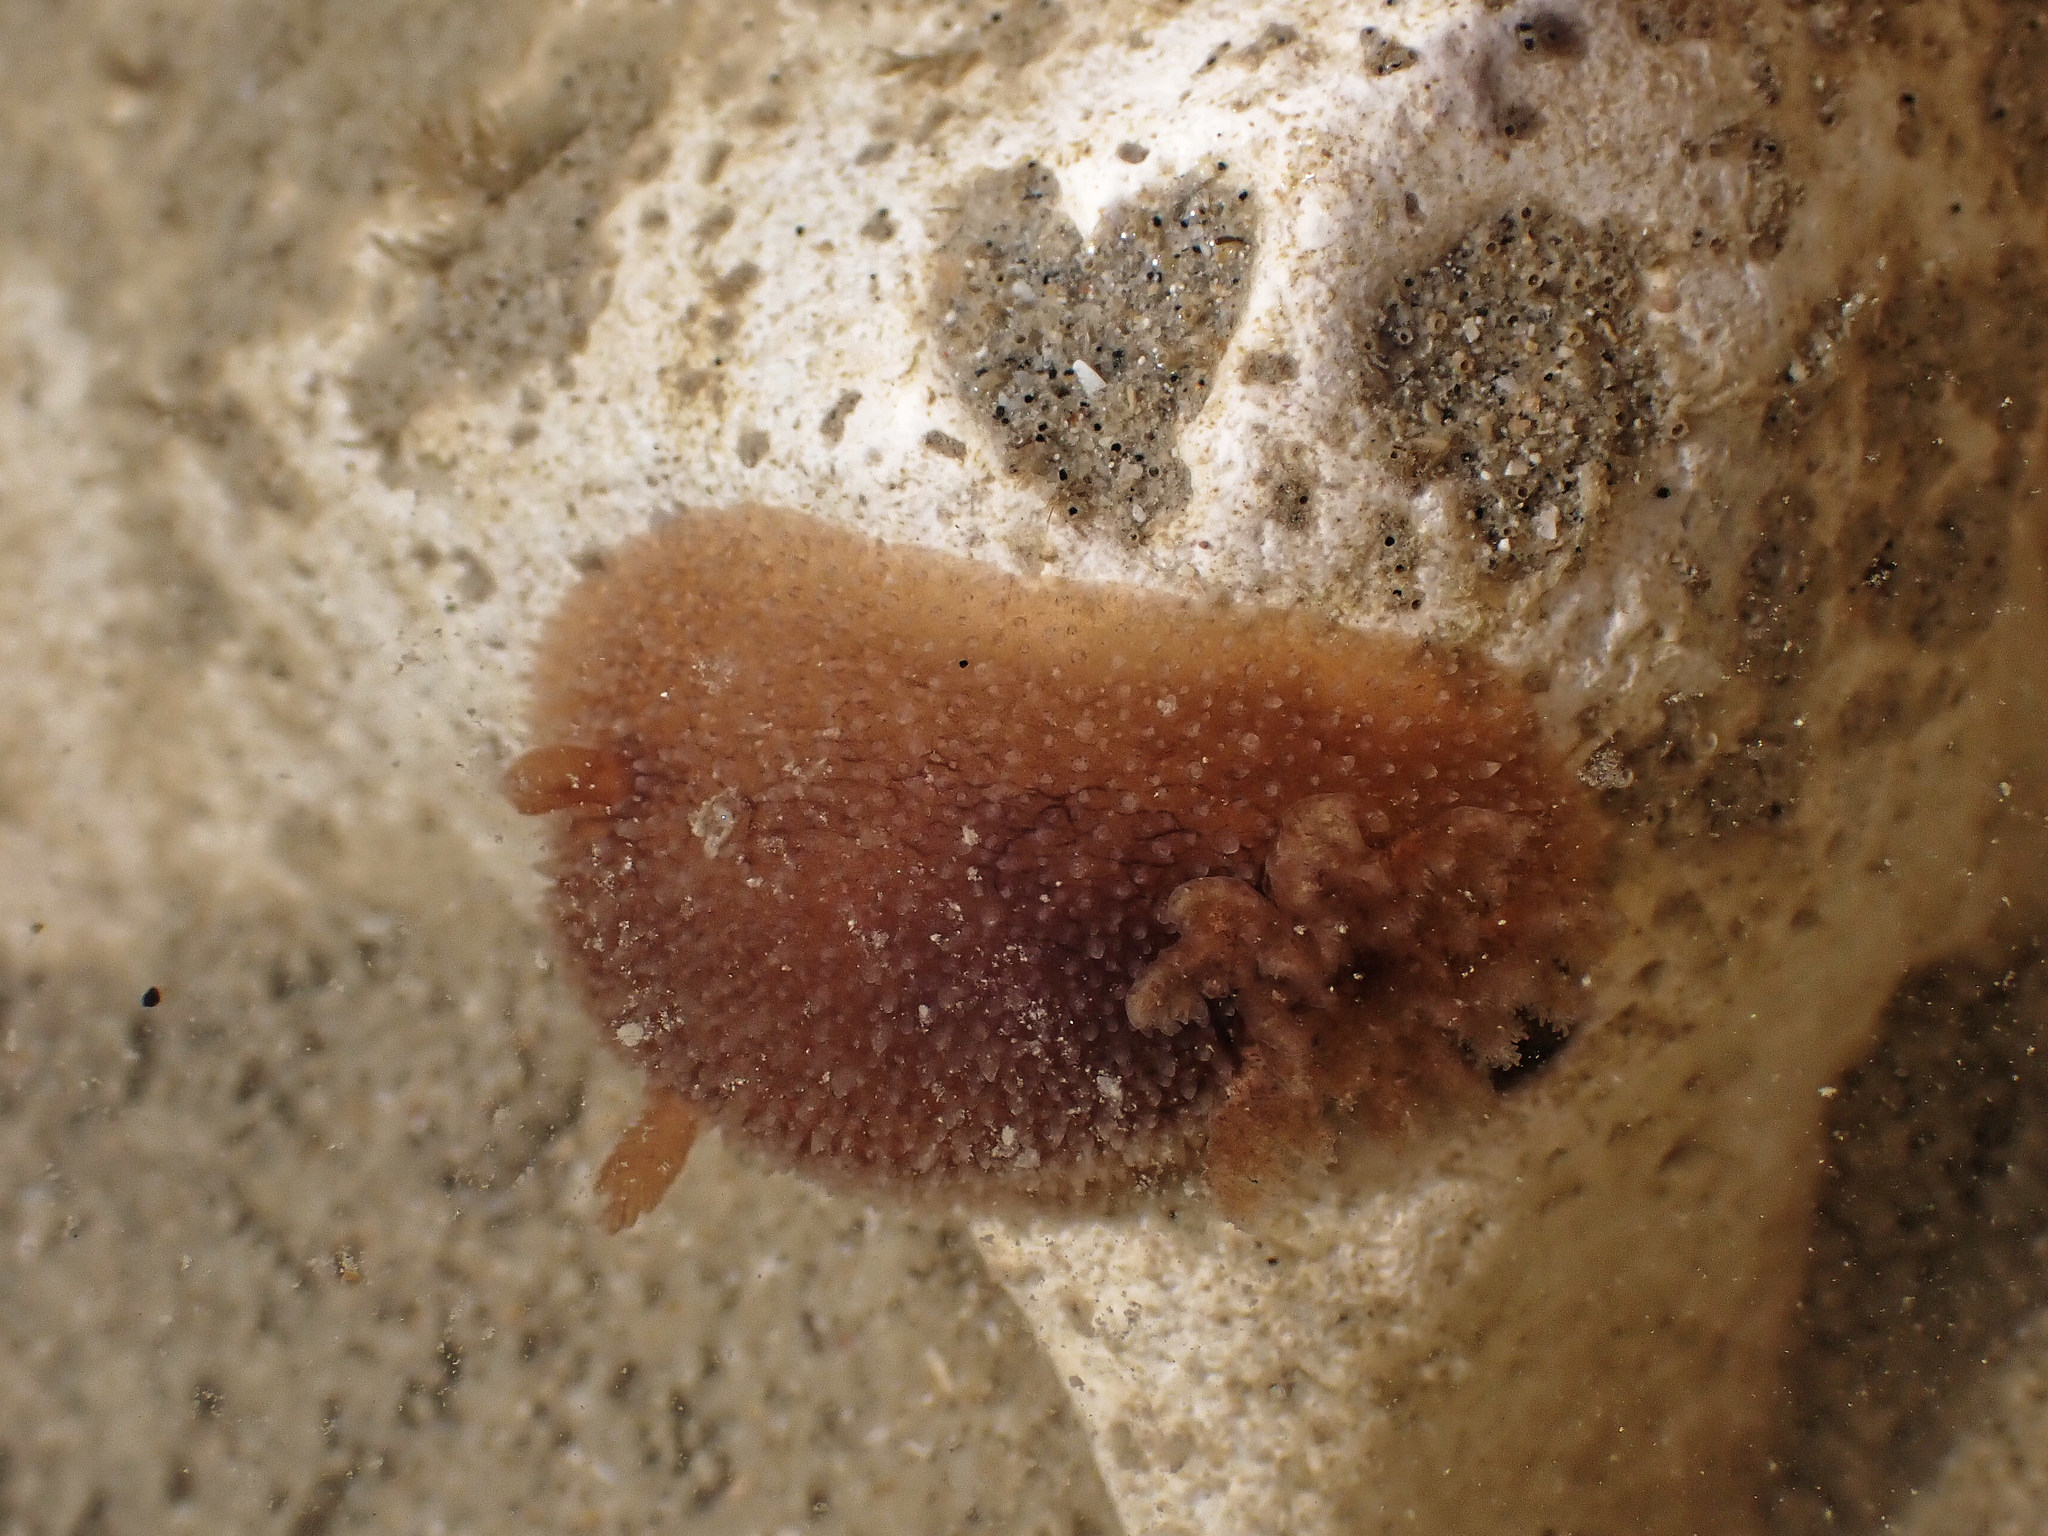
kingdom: Animalia
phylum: Mollusca
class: Gastropoda
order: Nudibranchia
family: Onchidorididae
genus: Acanthodoris
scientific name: Acanthodoris pilosa
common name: Hairy spiny doris
